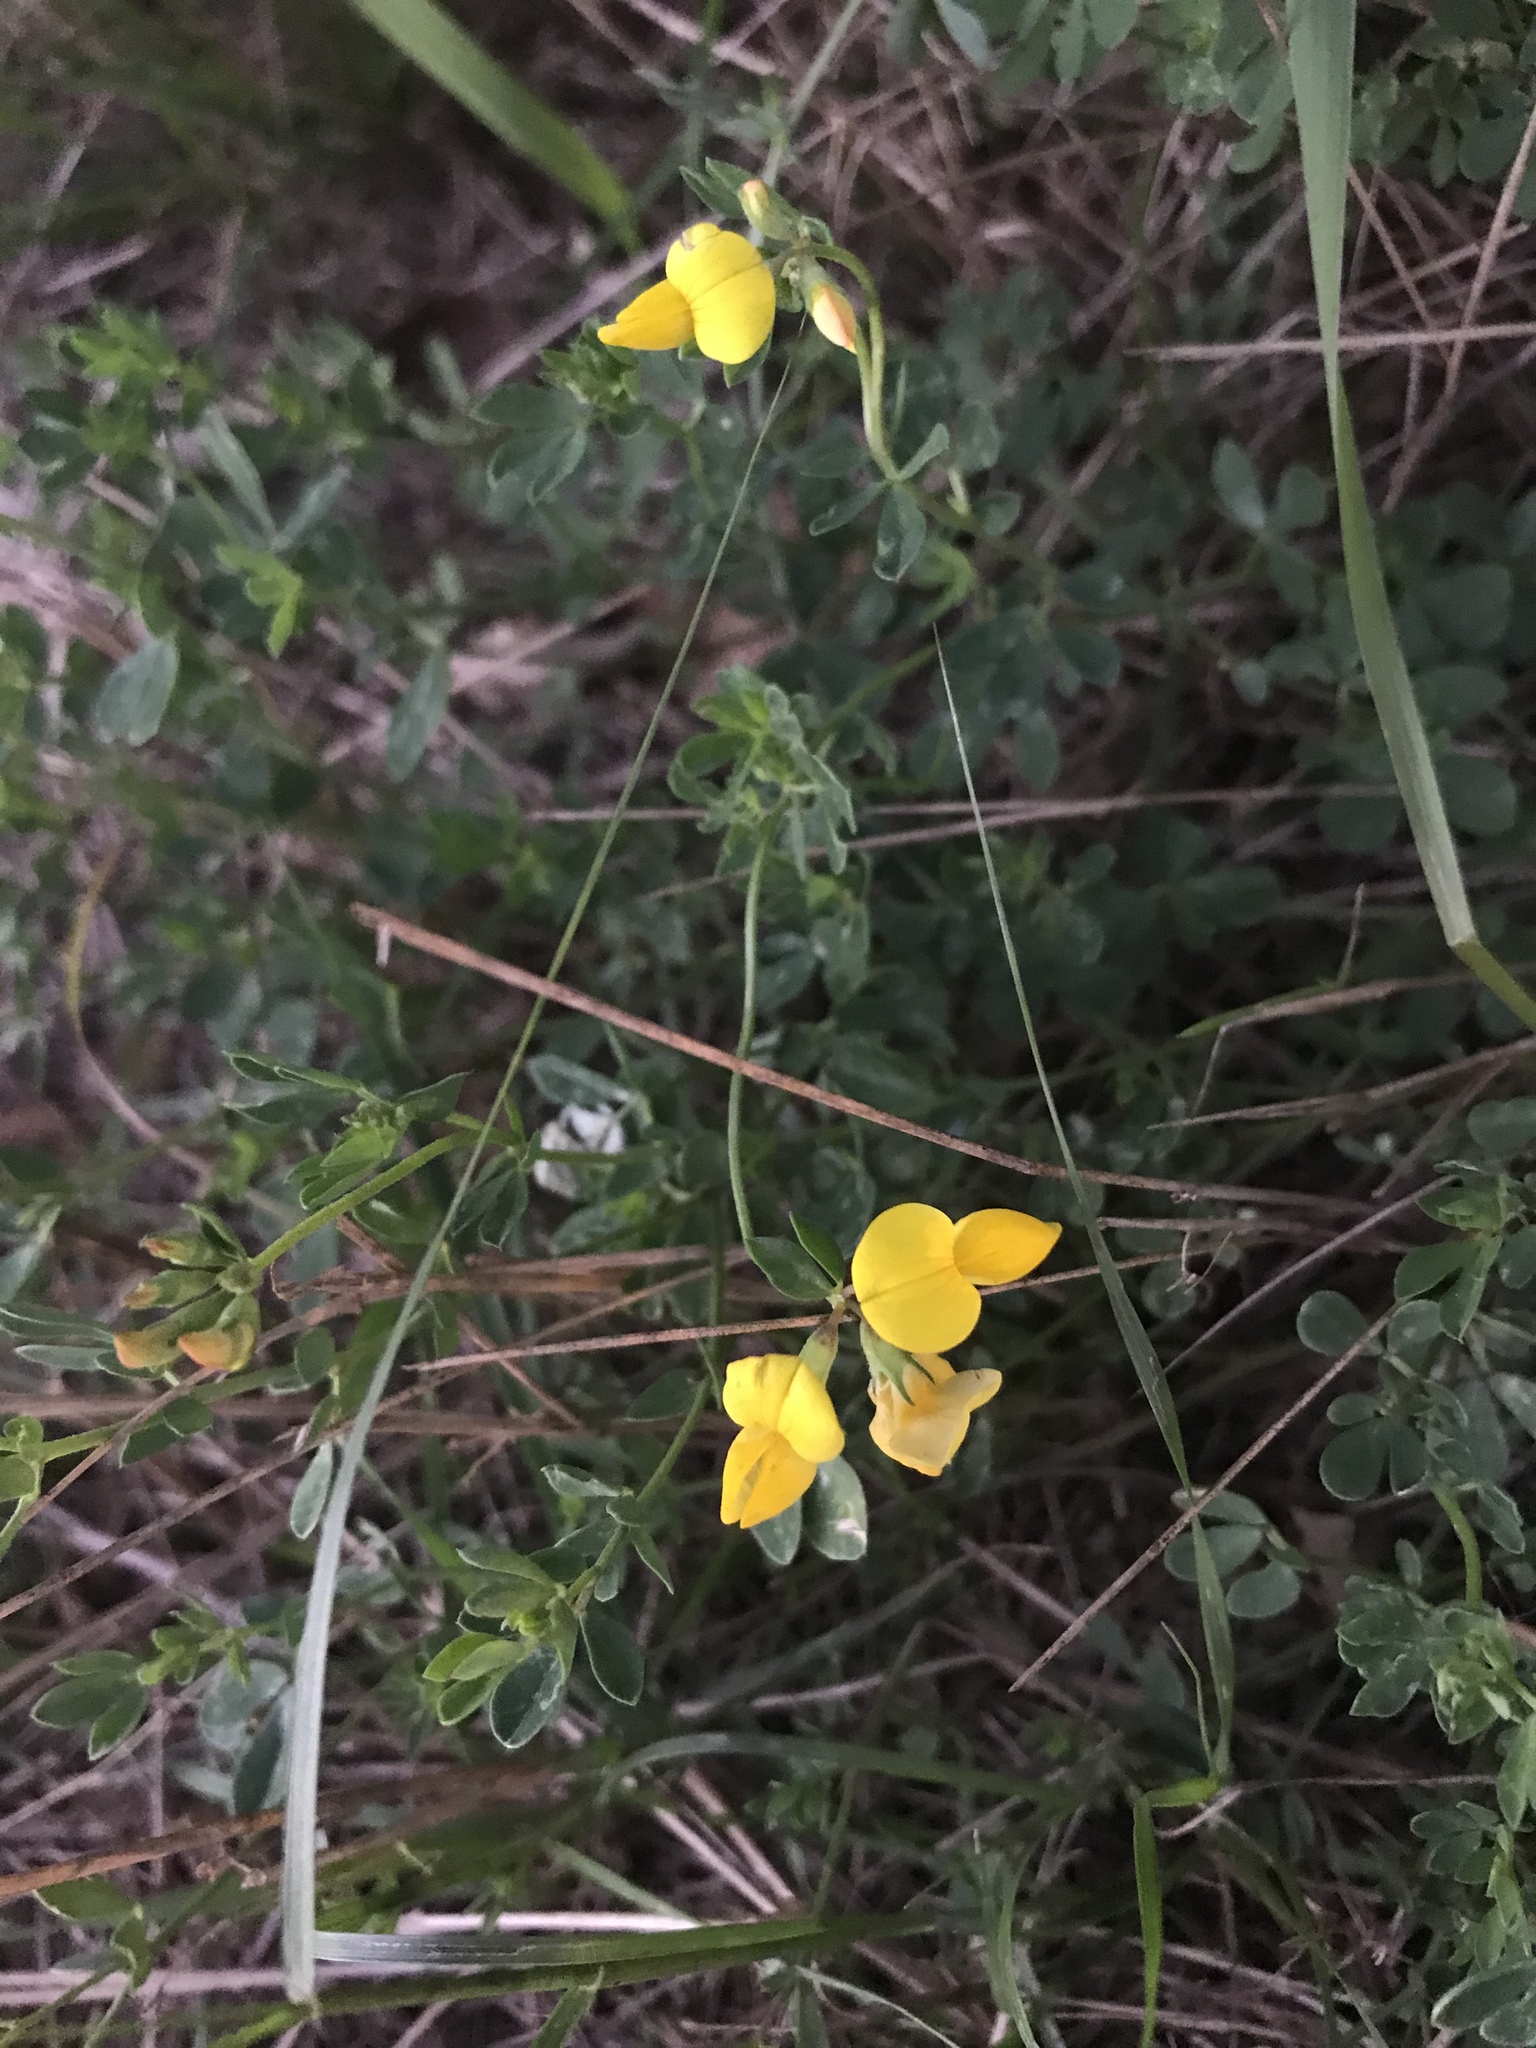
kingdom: Plantae
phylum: Tracheophyta
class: Magnoliopsida
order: Fabales
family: Fabaceae
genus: Lotus
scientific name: Lotus corniculatus
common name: Common bird's-foot-trefoil
